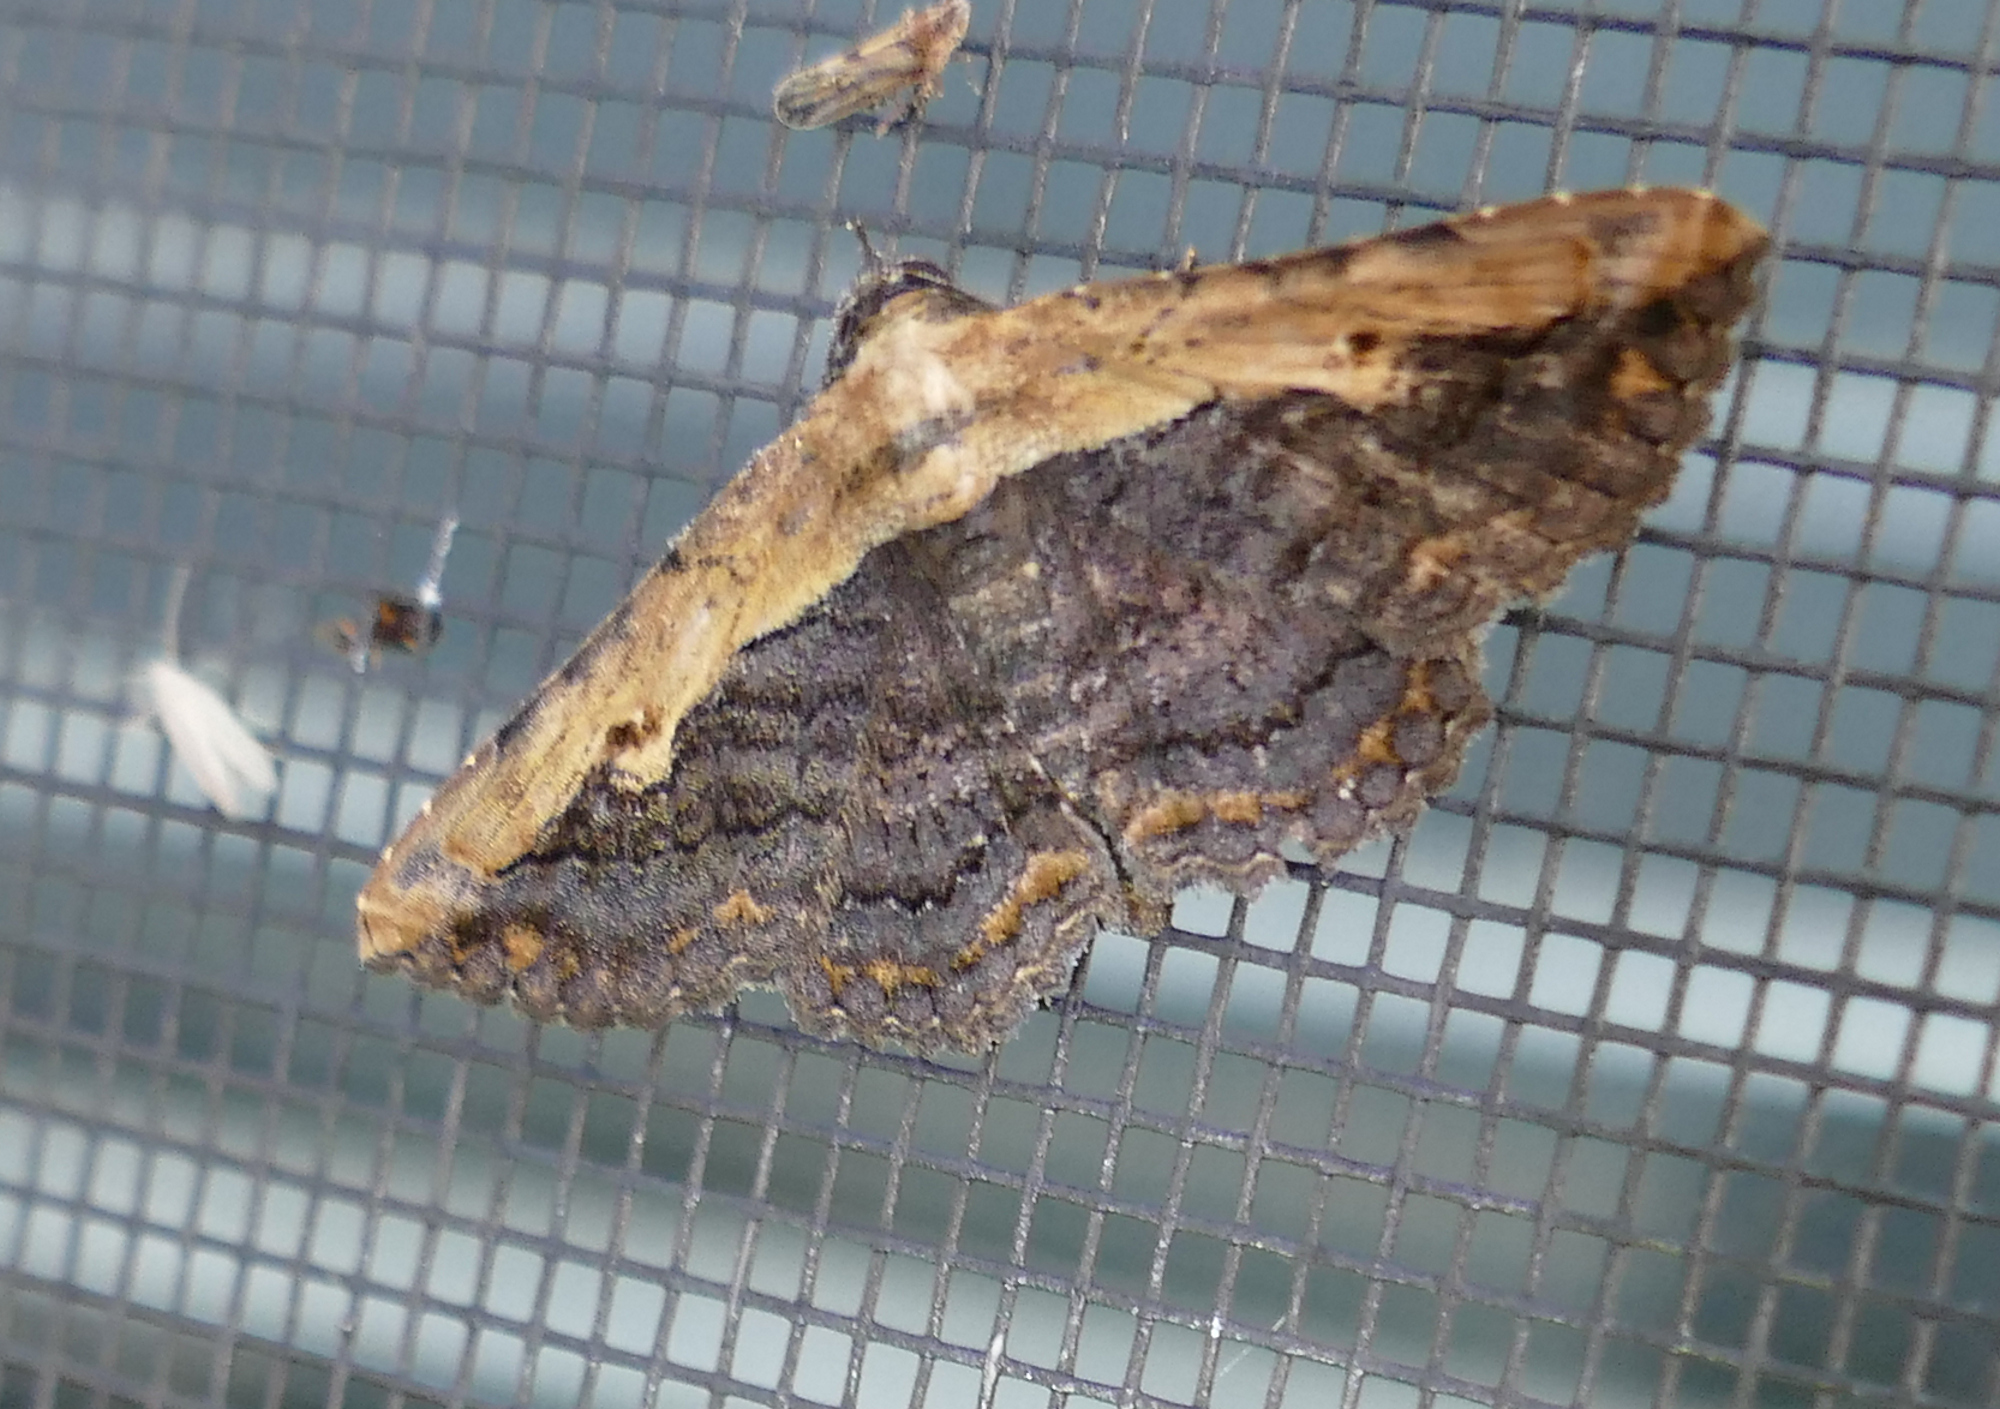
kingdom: Animalia
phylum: Arthropoda
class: Insecta
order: Lepidoptera
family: Erebidae
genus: Selenisa
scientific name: Selenisa sueroides
